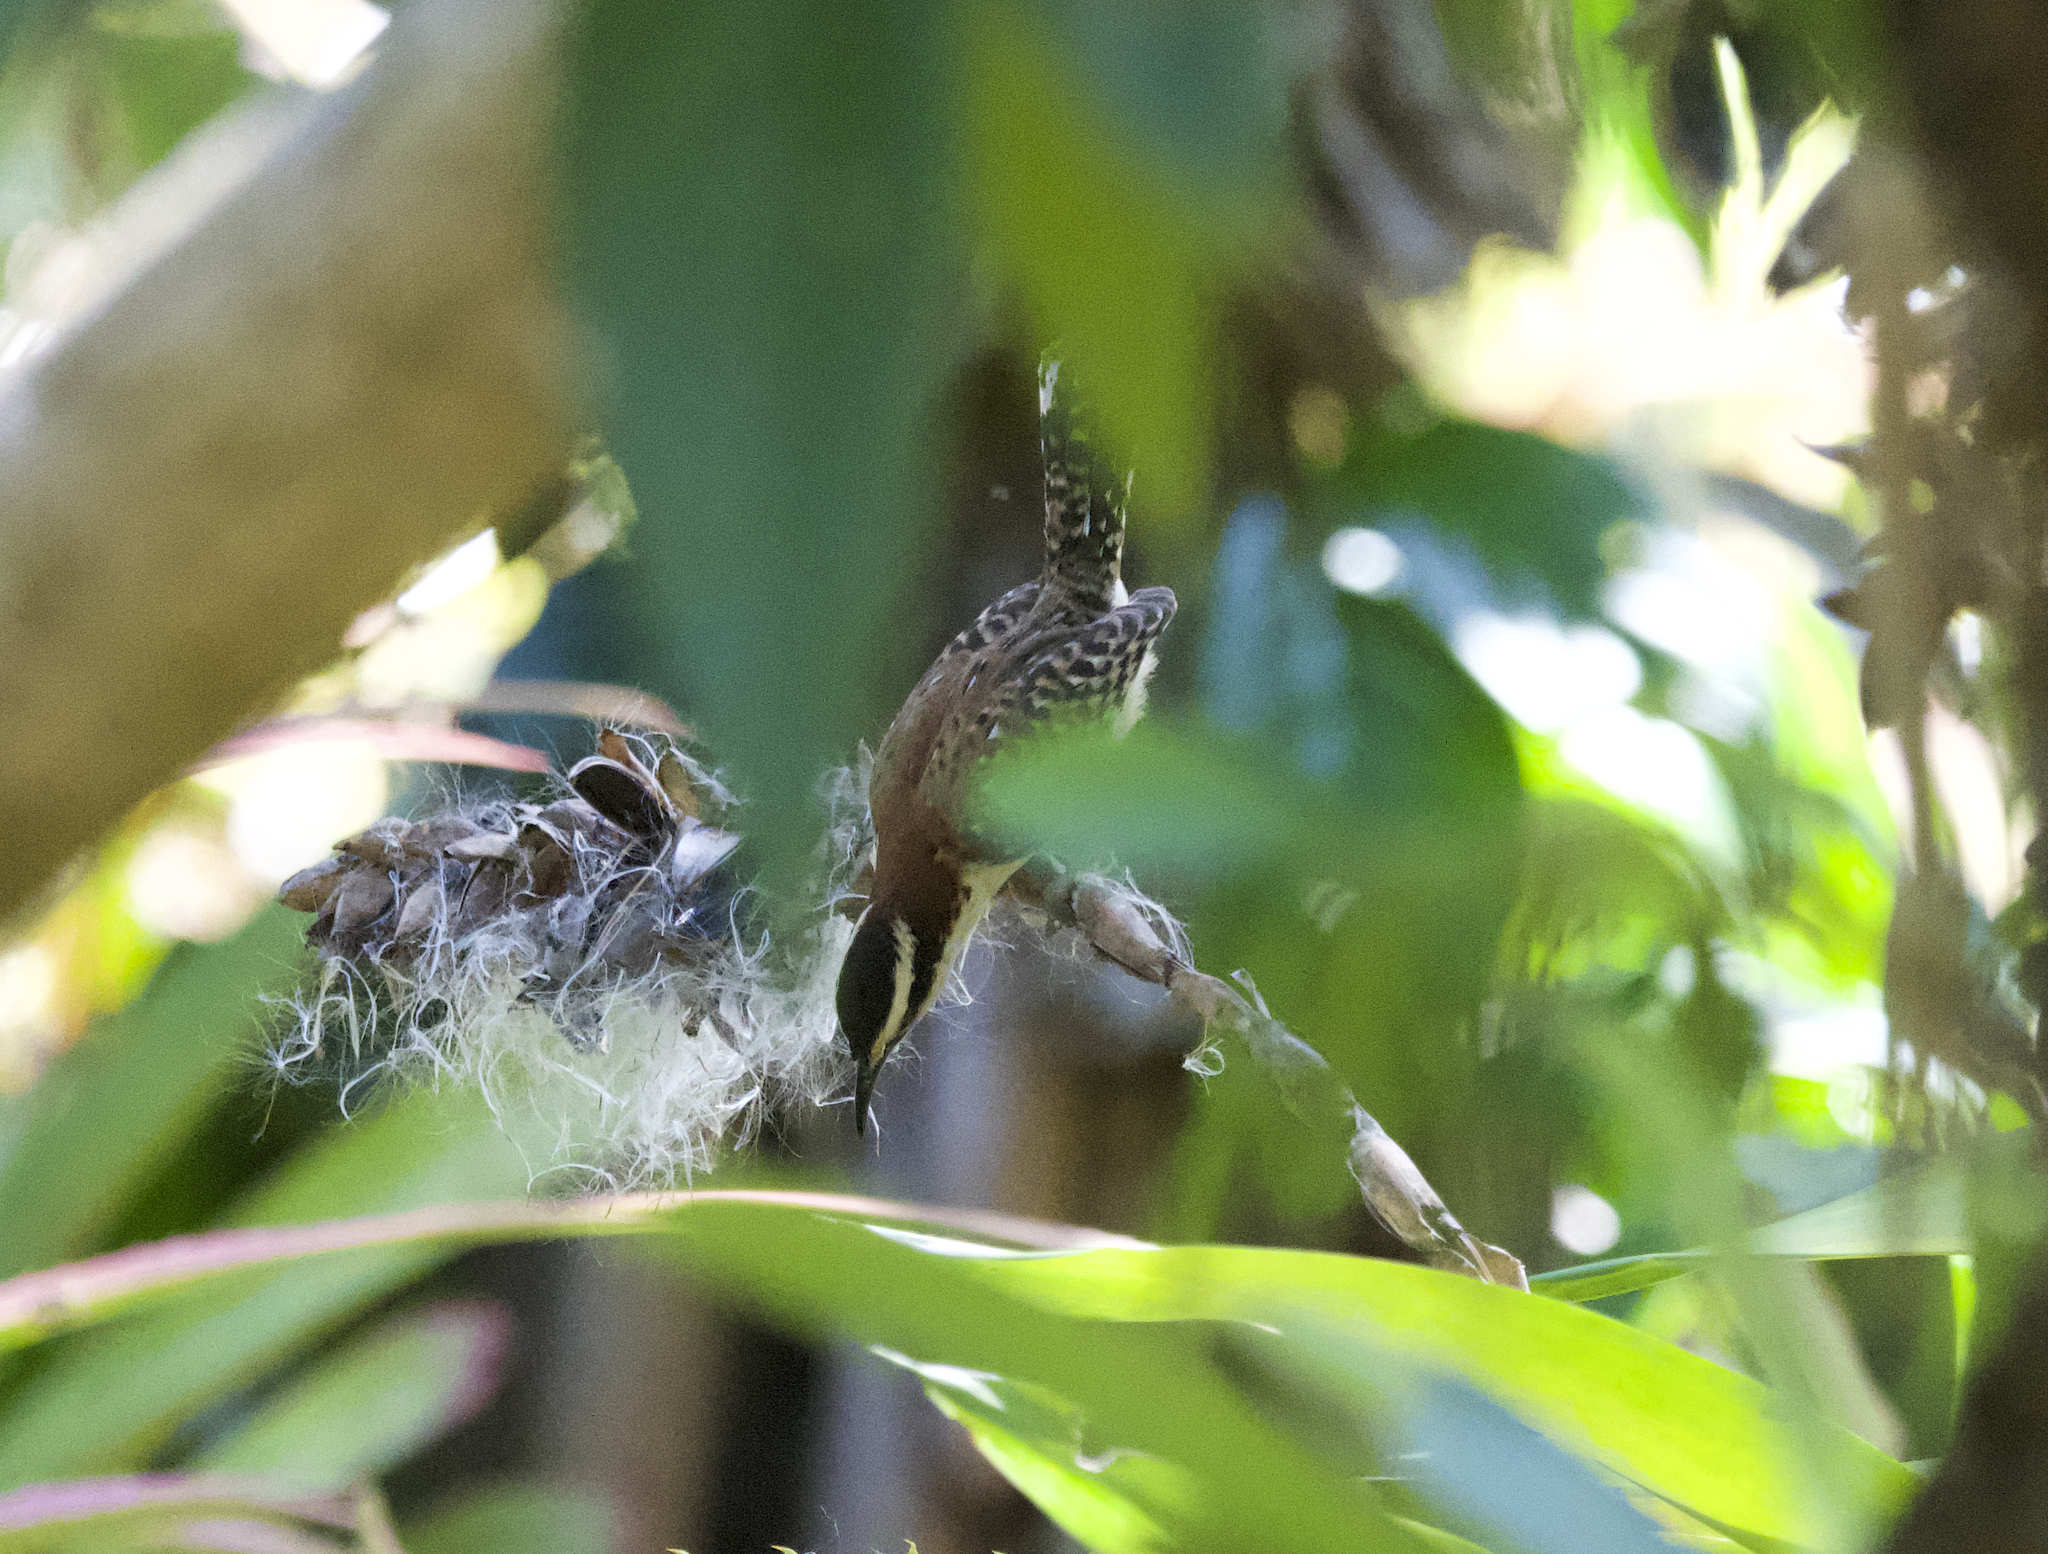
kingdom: Animalia
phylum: Chordata
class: Aves
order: Passeriformes
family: Troglodytidae
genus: Campylorhynchus
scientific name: Campylorhynchus rufinucha
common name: Rufous-naped wren
